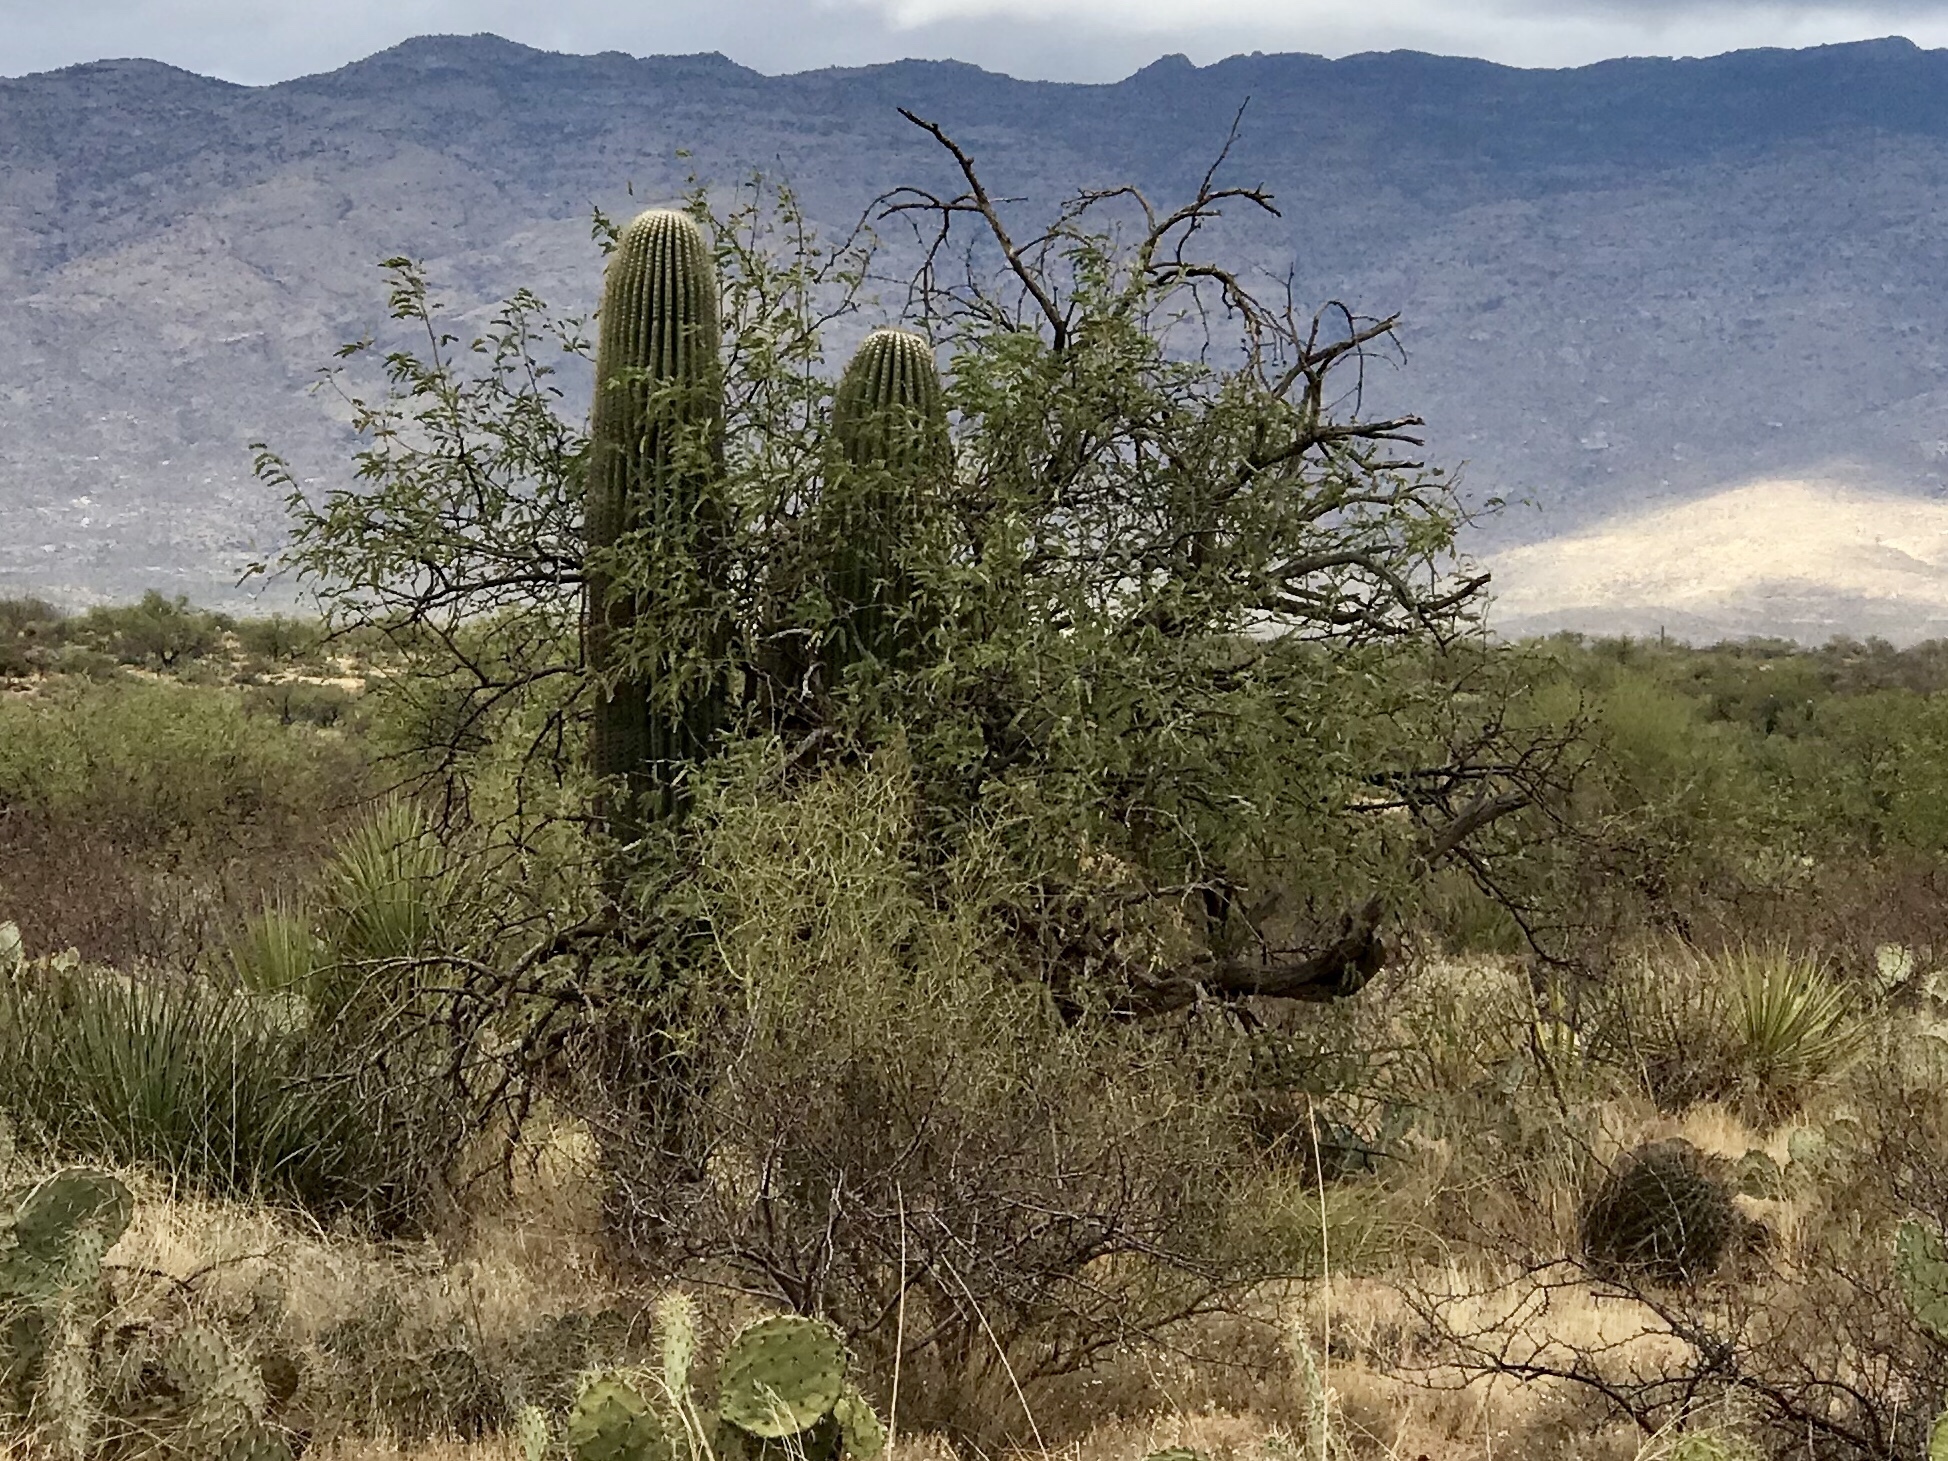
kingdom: Plantae
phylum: Tracheophyta
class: Magnoliopsida
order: Fabales
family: Fabaceae
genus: Prosopis
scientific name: Prosopis velutina
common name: Velvet mesquite
